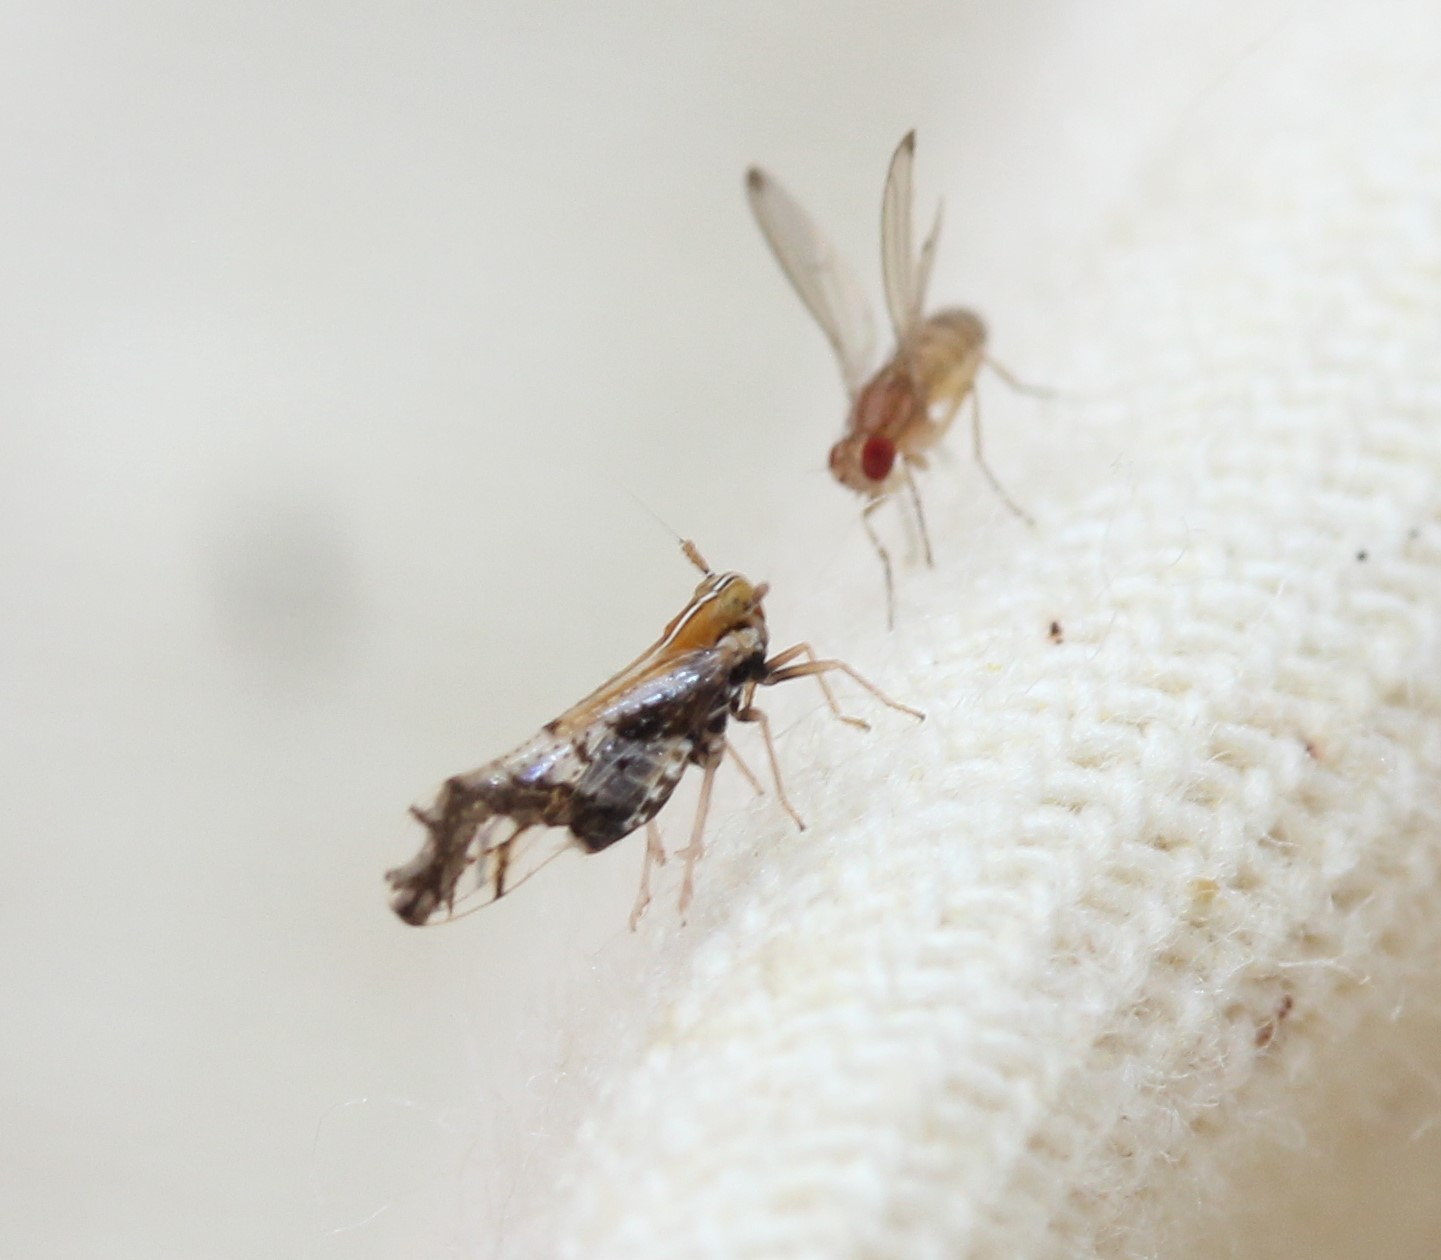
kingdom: Animalia
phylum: Arthropoda
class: Insecta
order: Hemiptera
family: Delphacidae
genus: Liburniella
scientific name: Liburniella ornata
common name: Ornate planthopper
